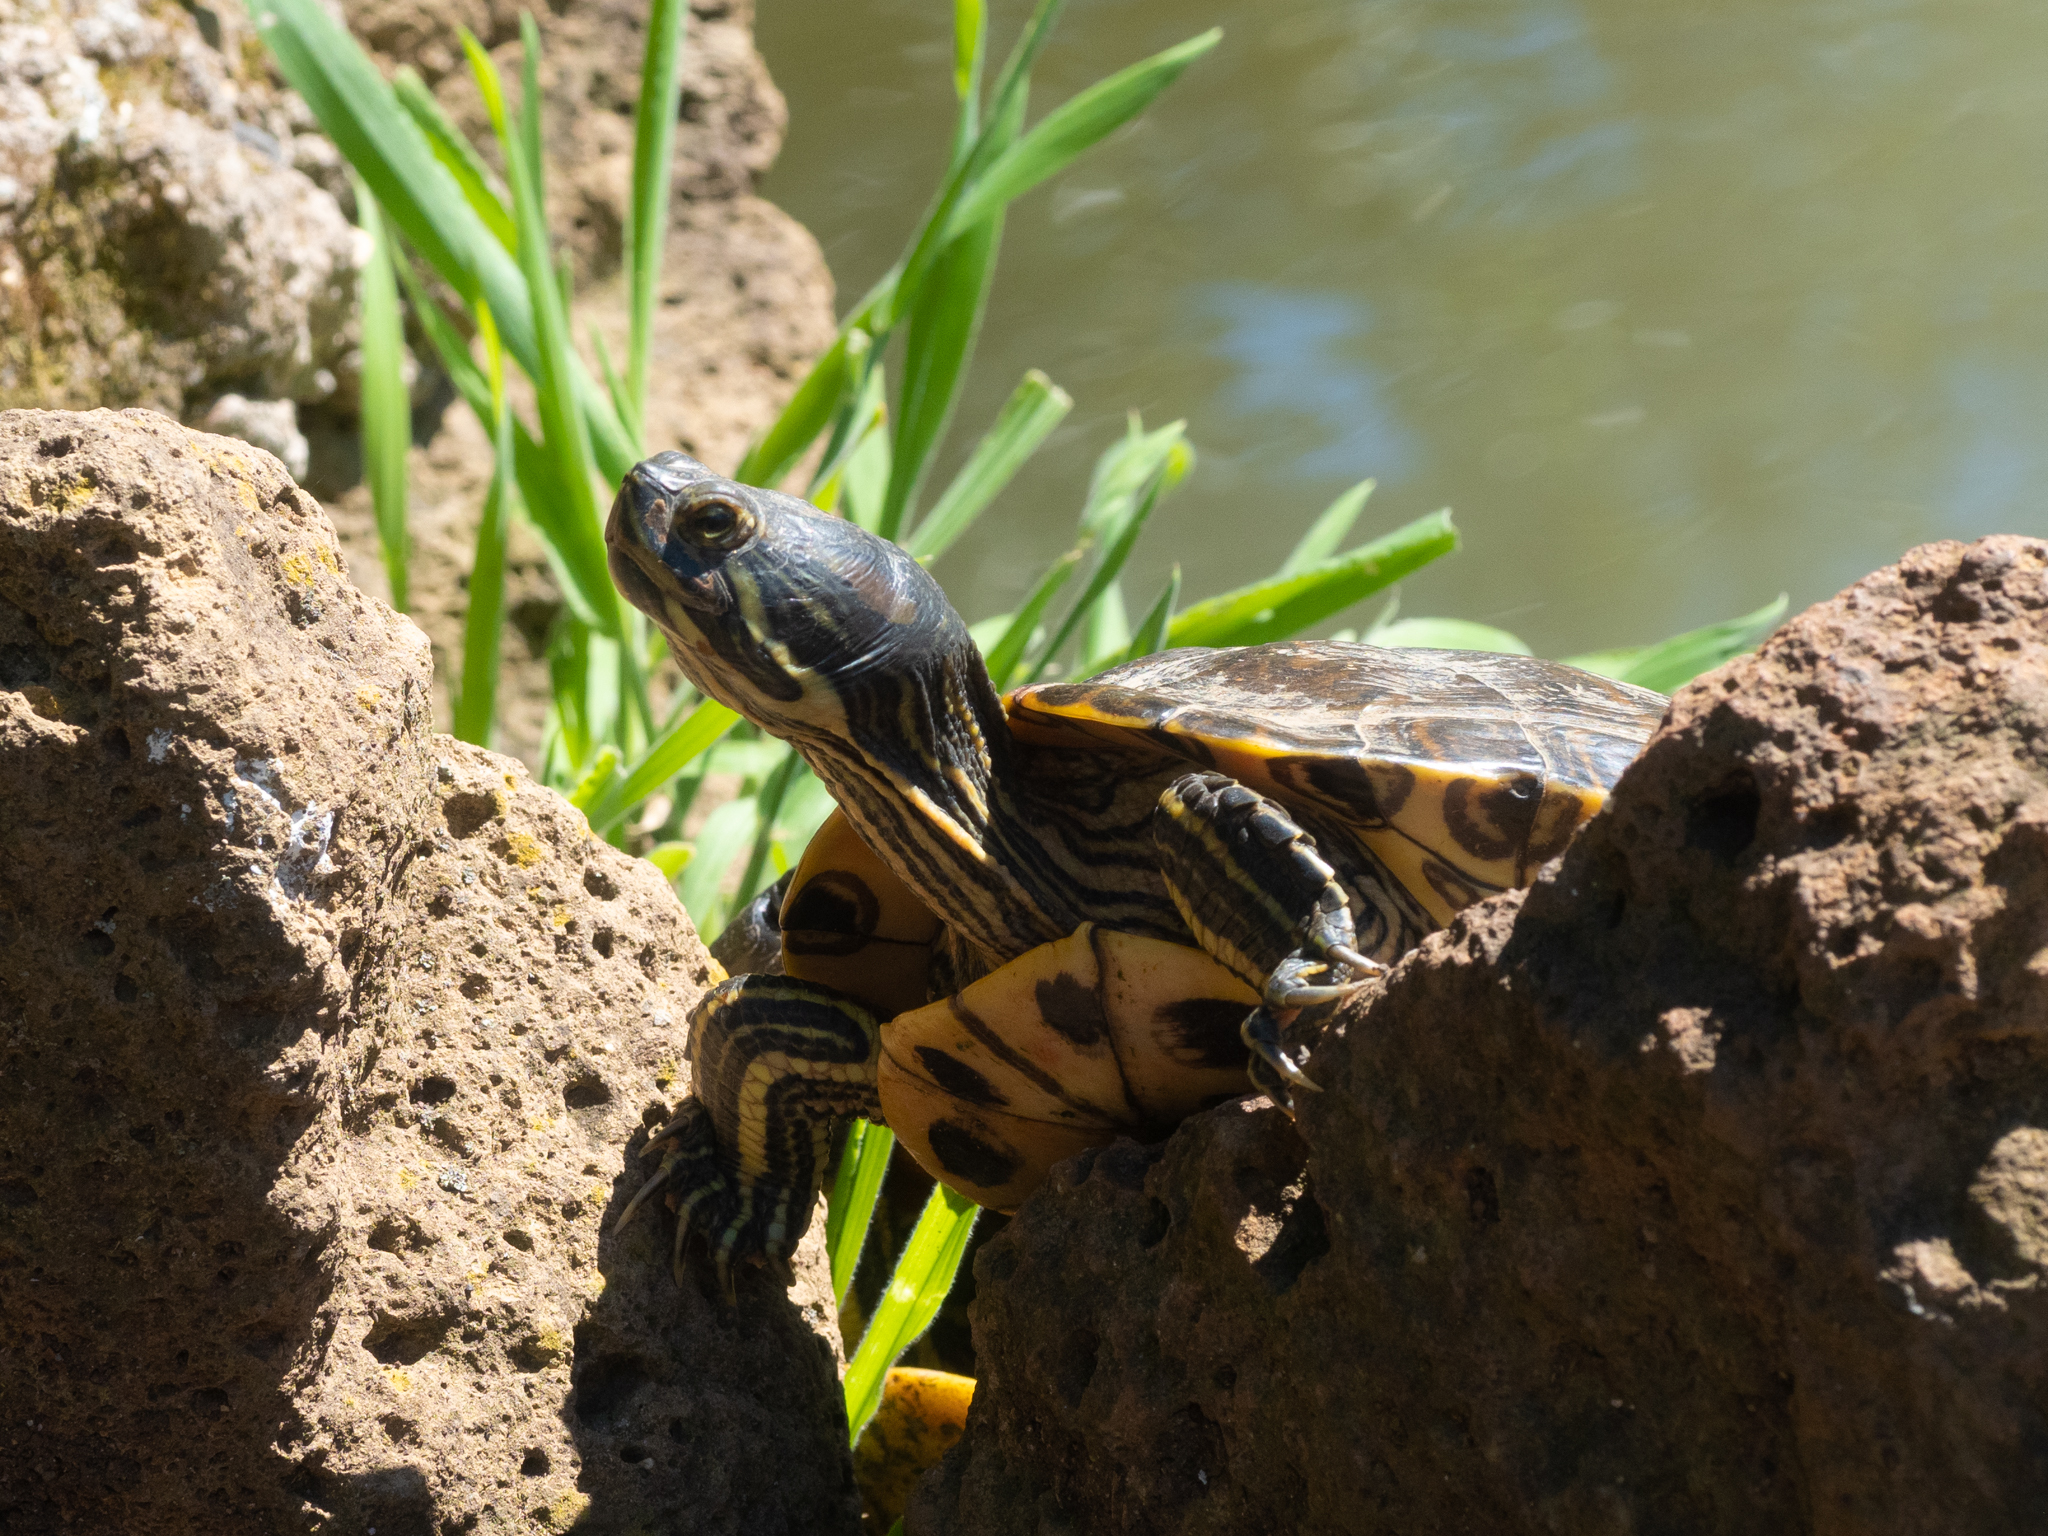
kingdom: Animalia
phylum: Chordata
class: Testudines
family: Emydidae
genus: Trachemys
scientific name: Trachemys scripta
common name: Slider
